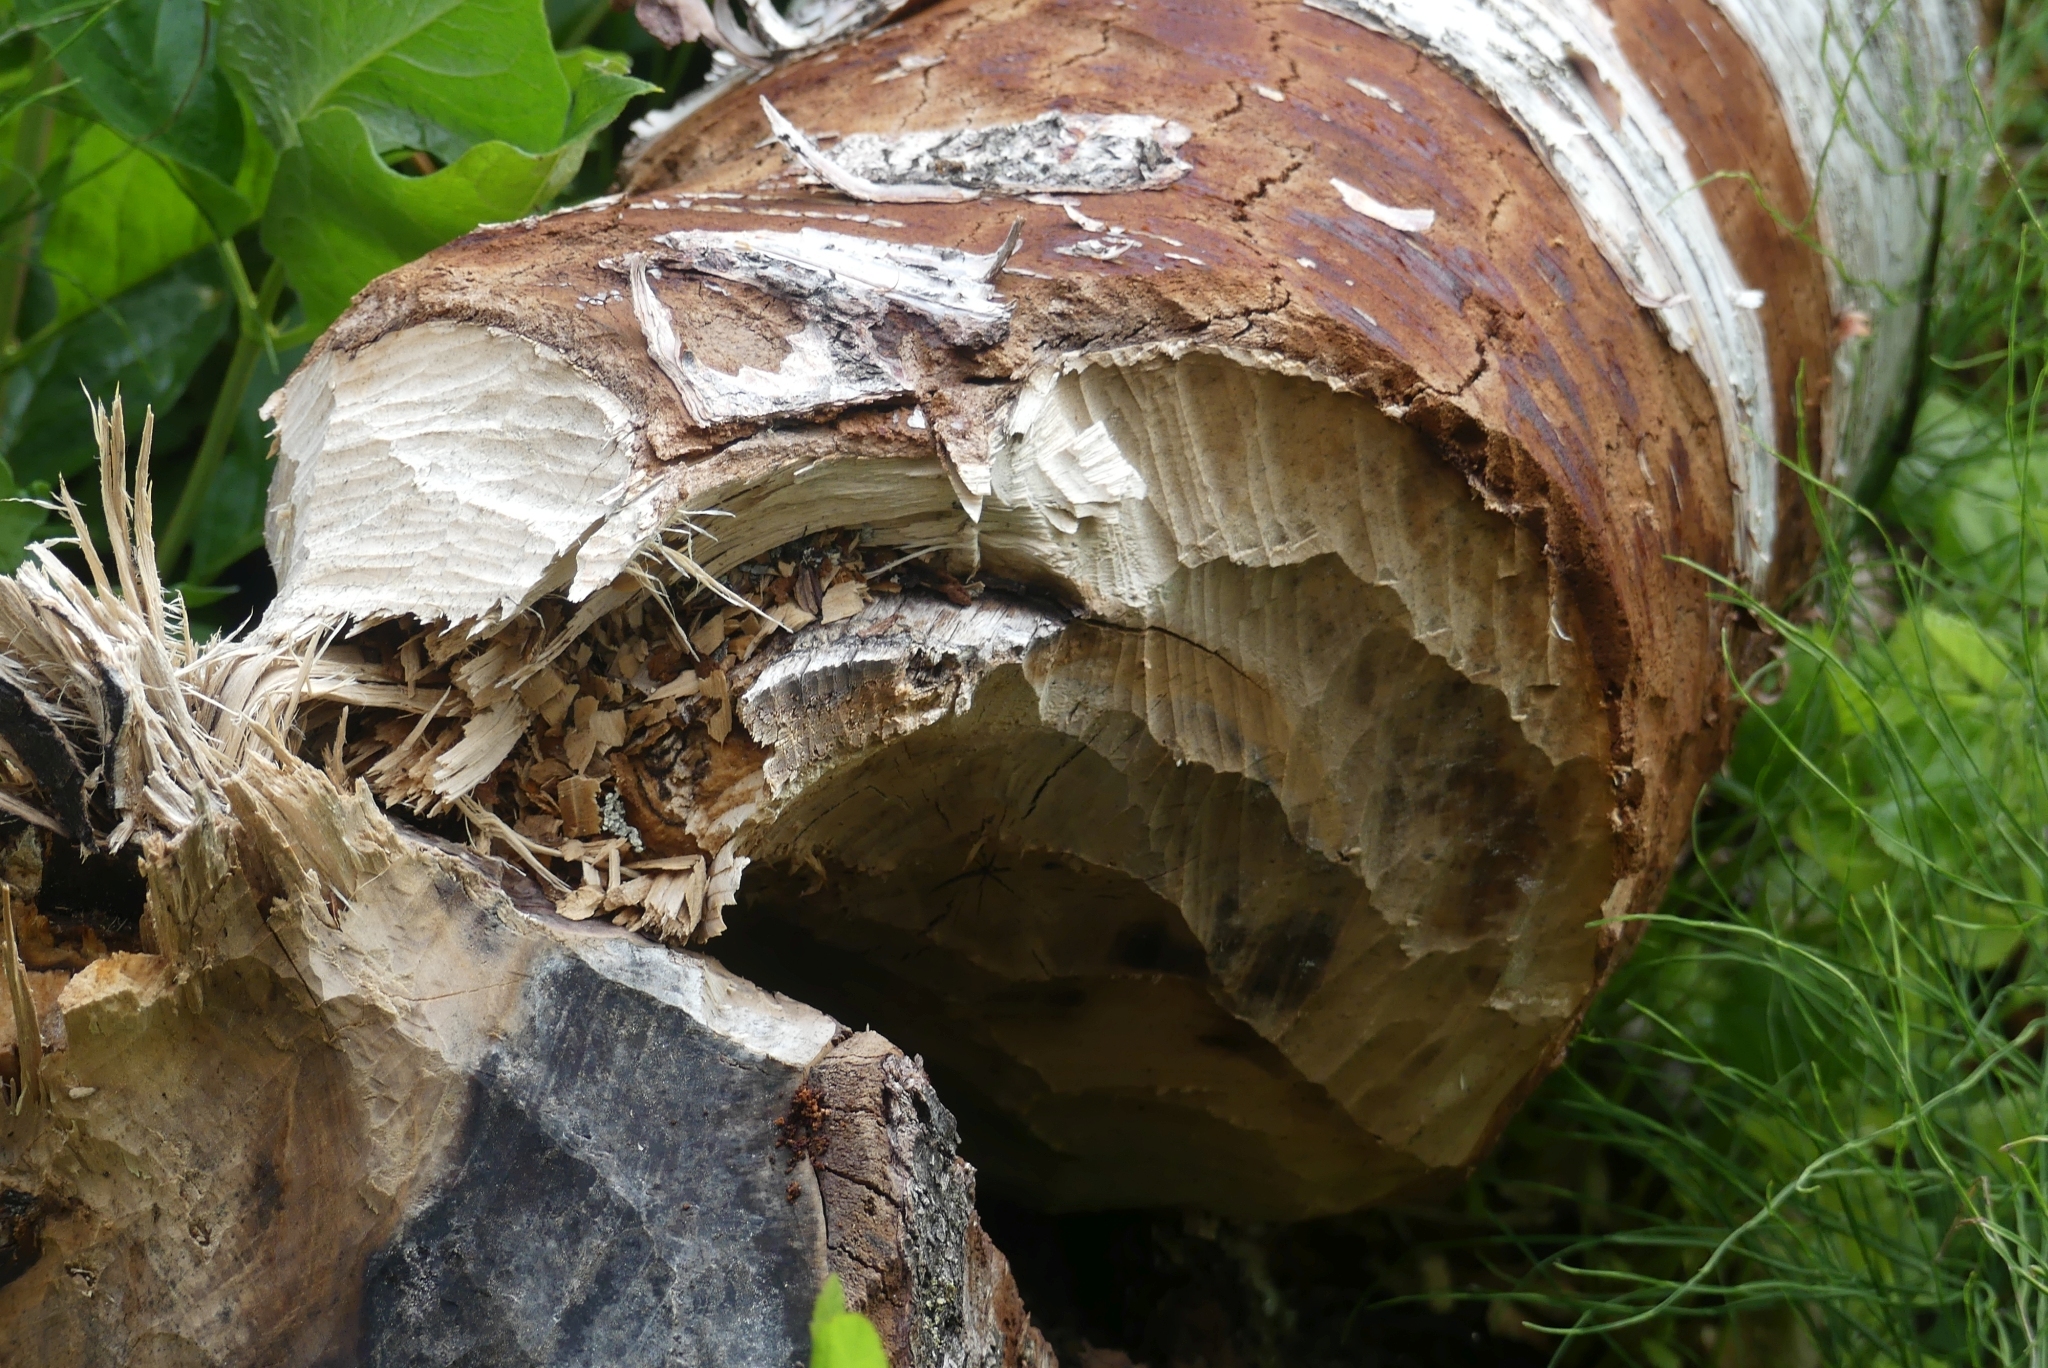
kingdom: Animalia
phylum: Chordata
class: Mammalia
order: Rodentia
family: Castoridae
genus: Castor
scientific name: Castor canadensis
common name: American beaver
